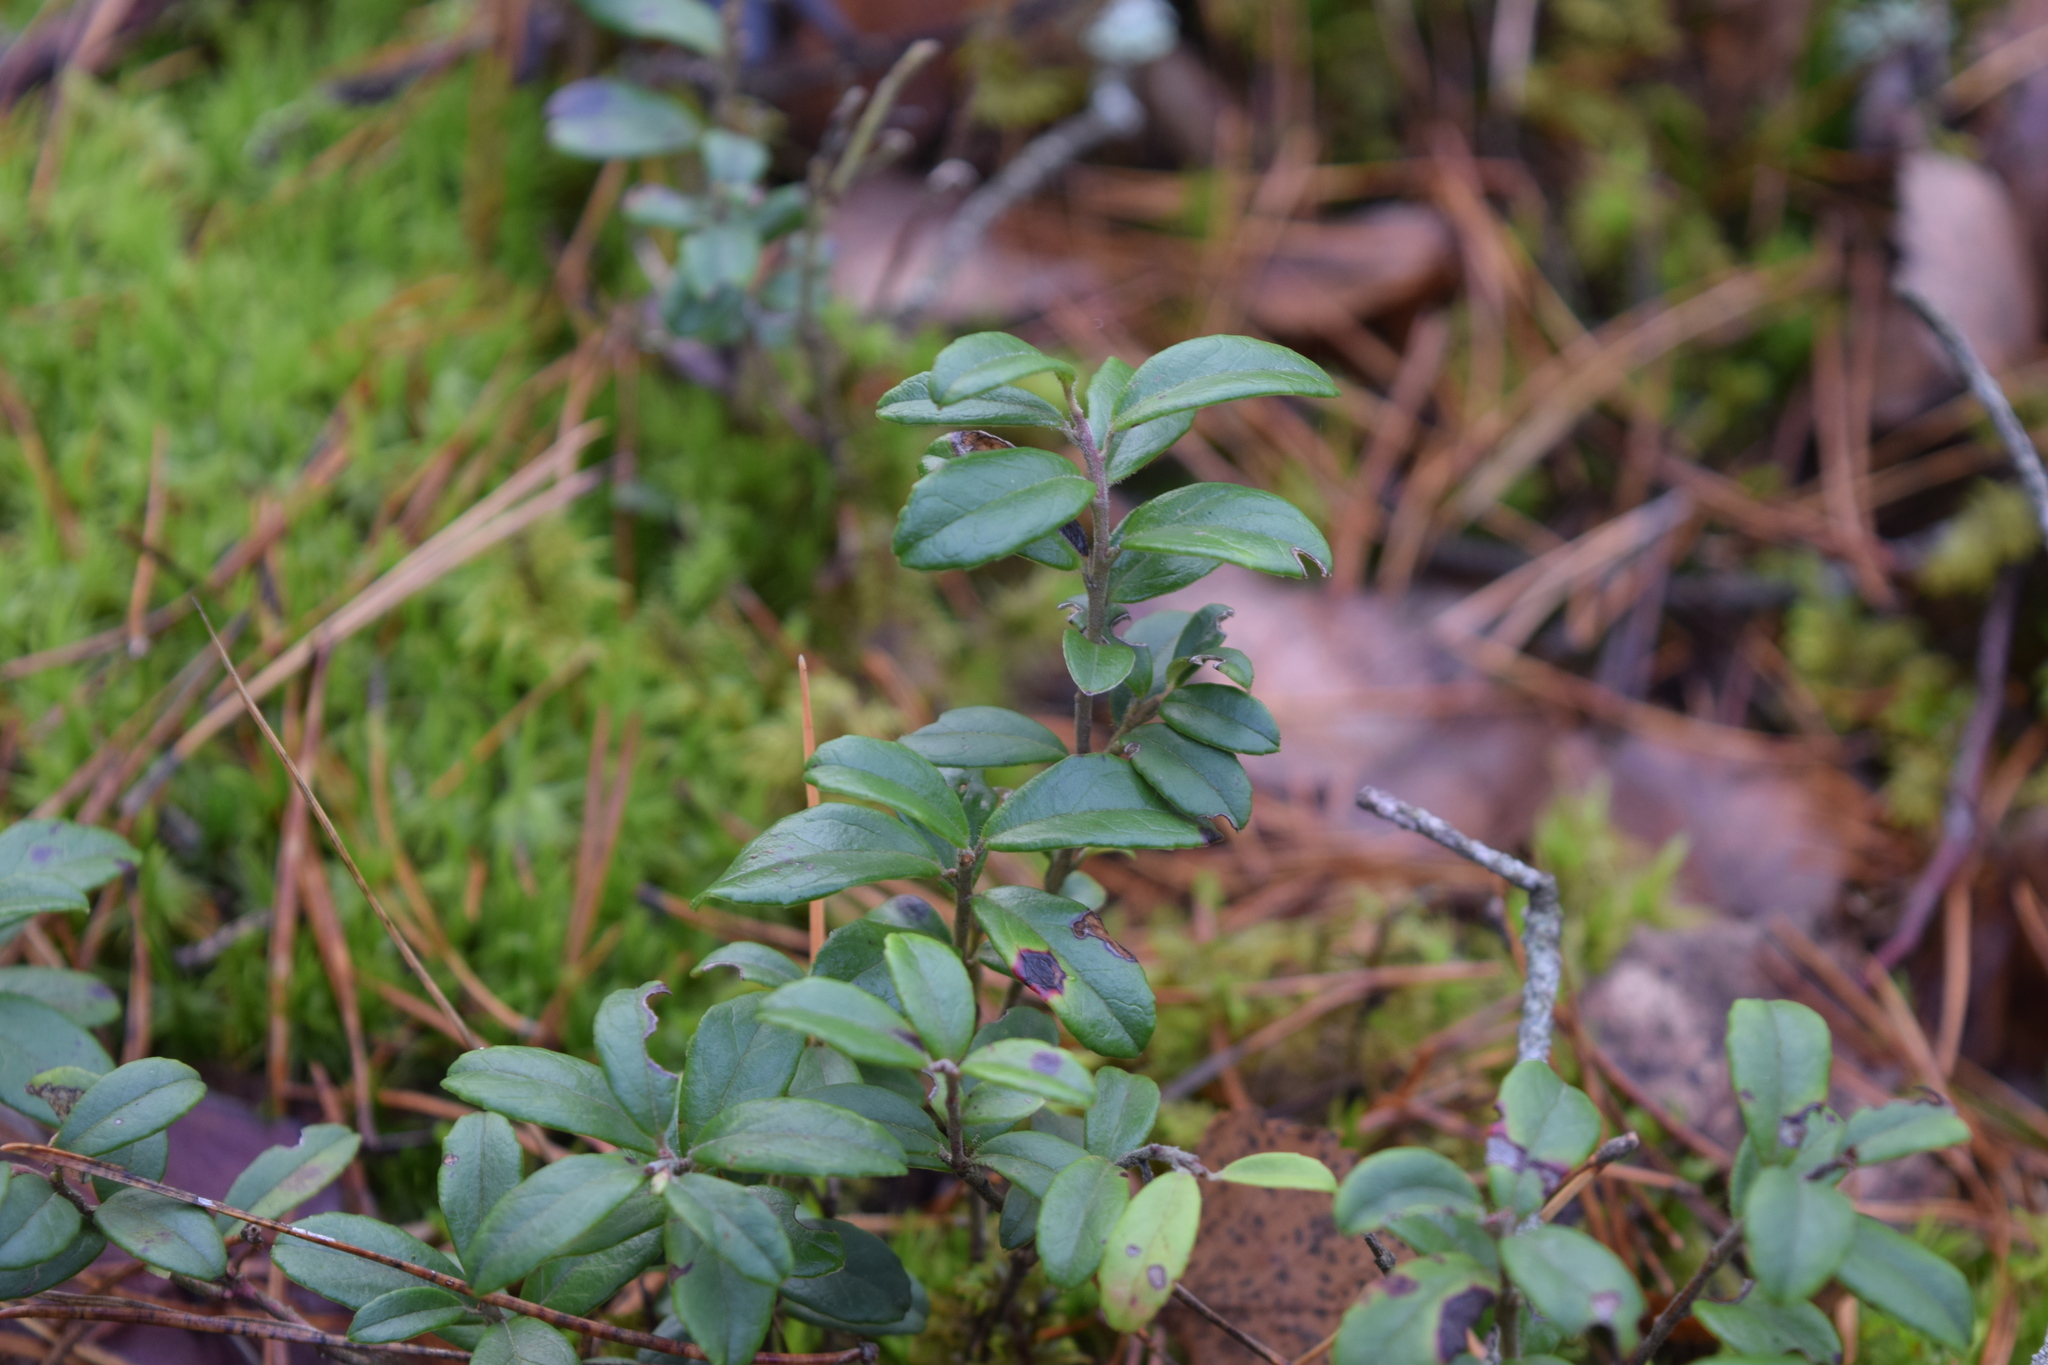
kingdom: Plantae
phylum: Tracheophyta
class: Magnoliopsida
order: Ericales
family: Ericaceae
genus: Vaccinium
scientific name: Vaccinium vitis-idaea
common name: Cowberry
